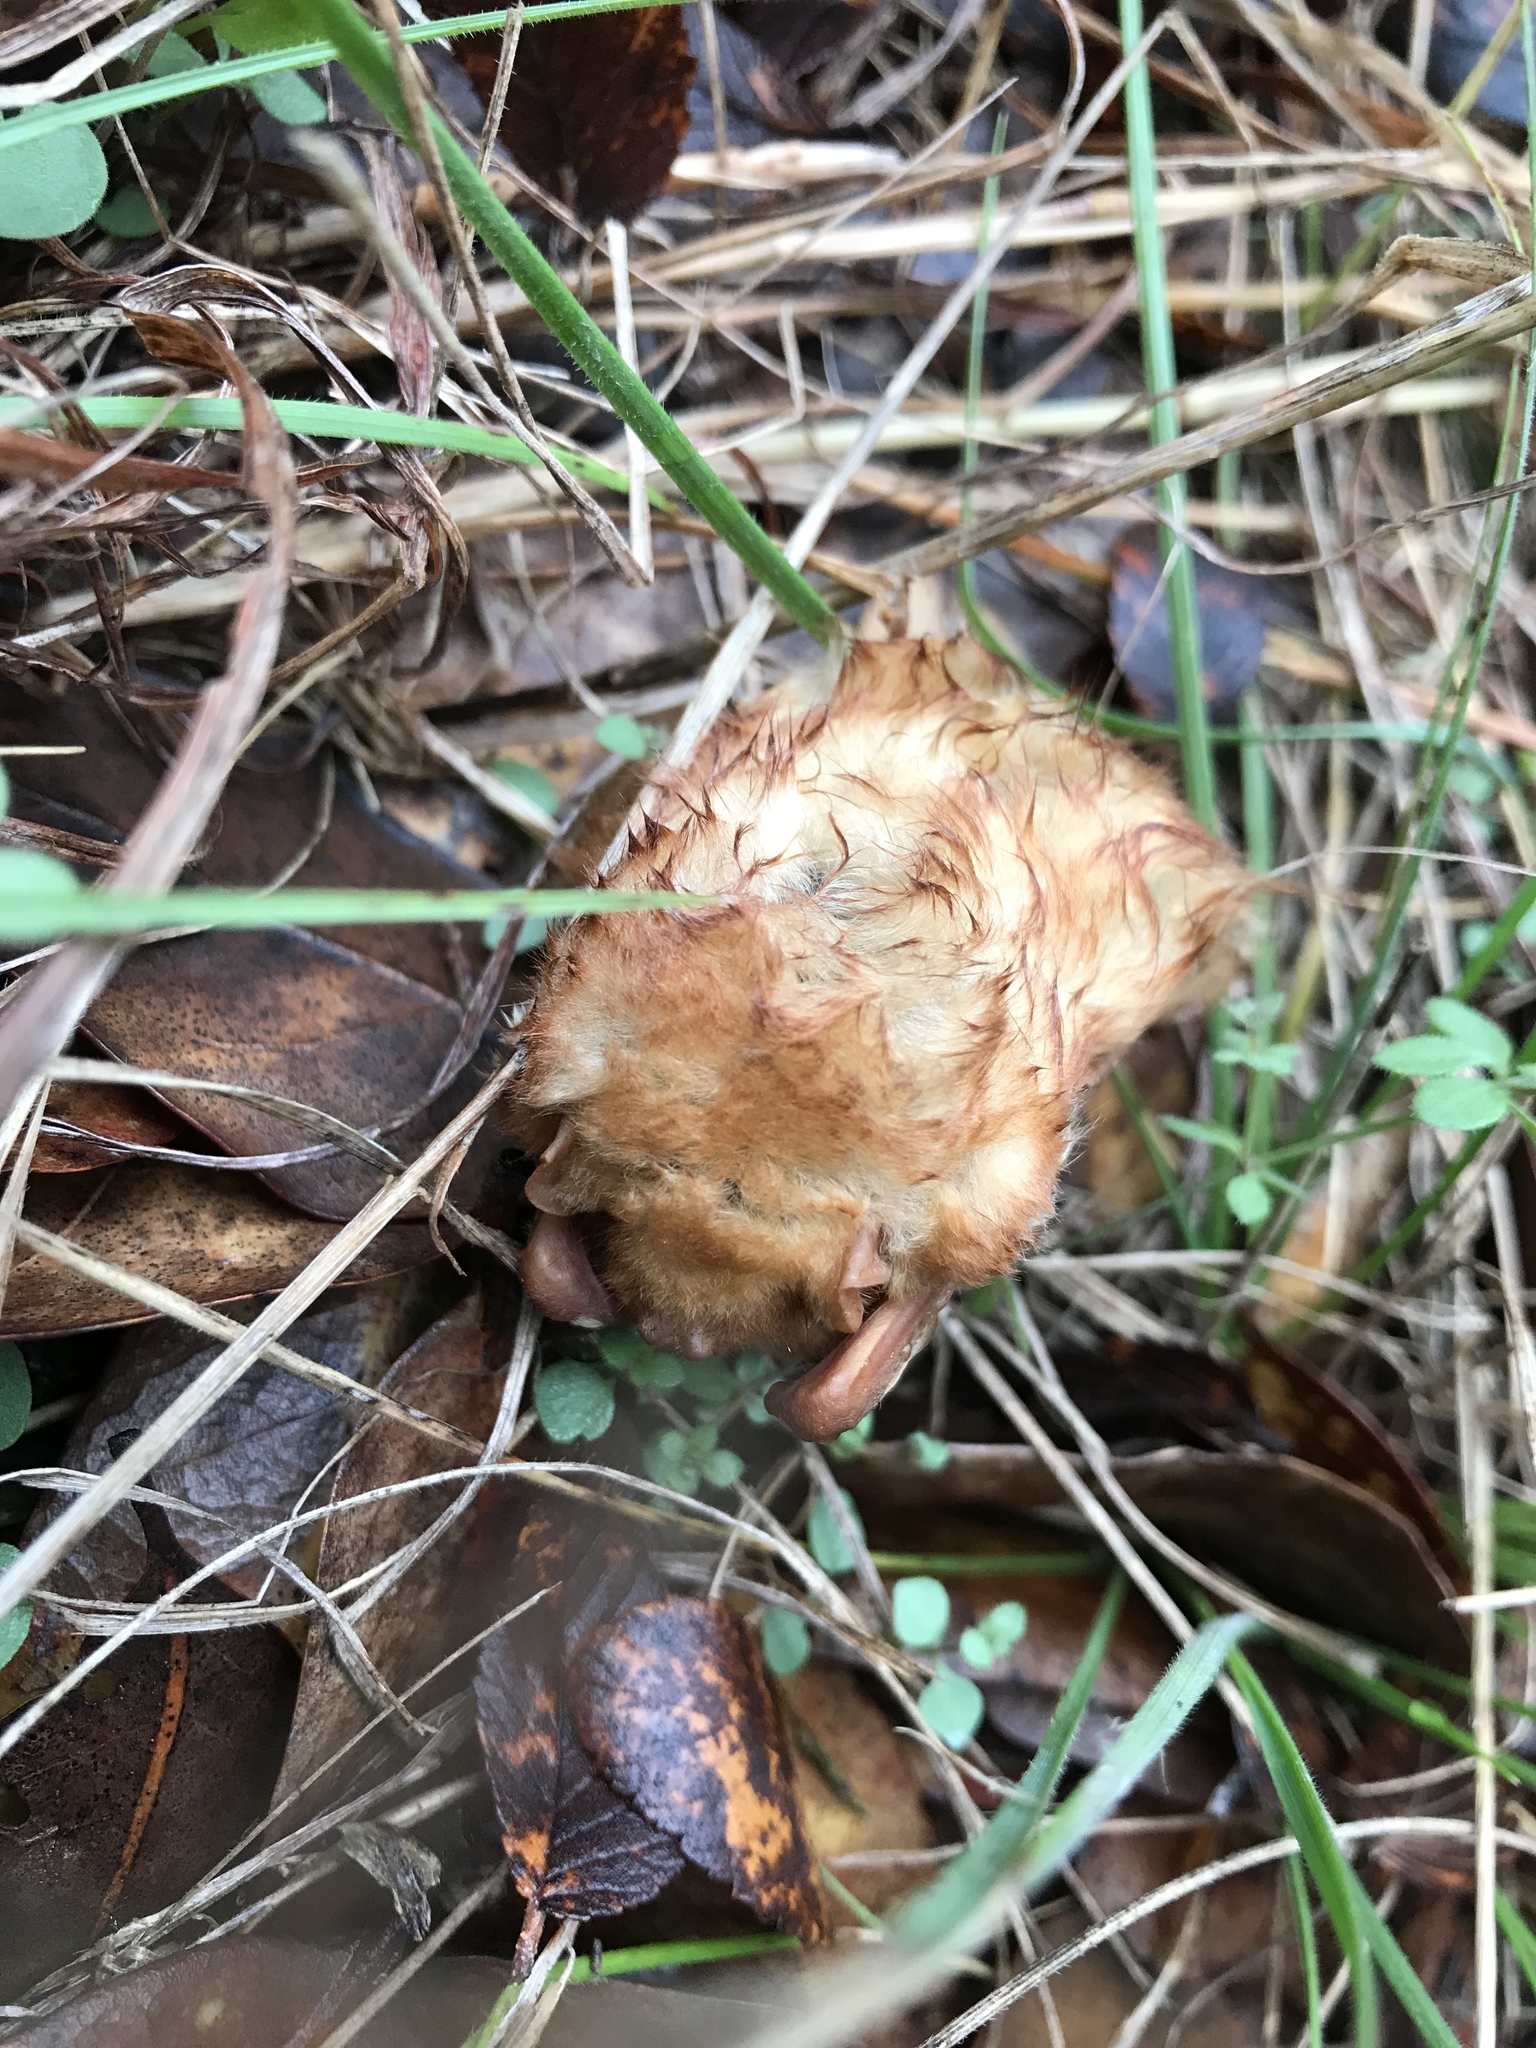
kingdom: Animalia
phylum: Chordata
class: Mammalia
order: Chiroptera
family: Vespertilionidae
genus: Lasiurus
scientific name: Lasiurus borealis
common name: Eastern red bat
